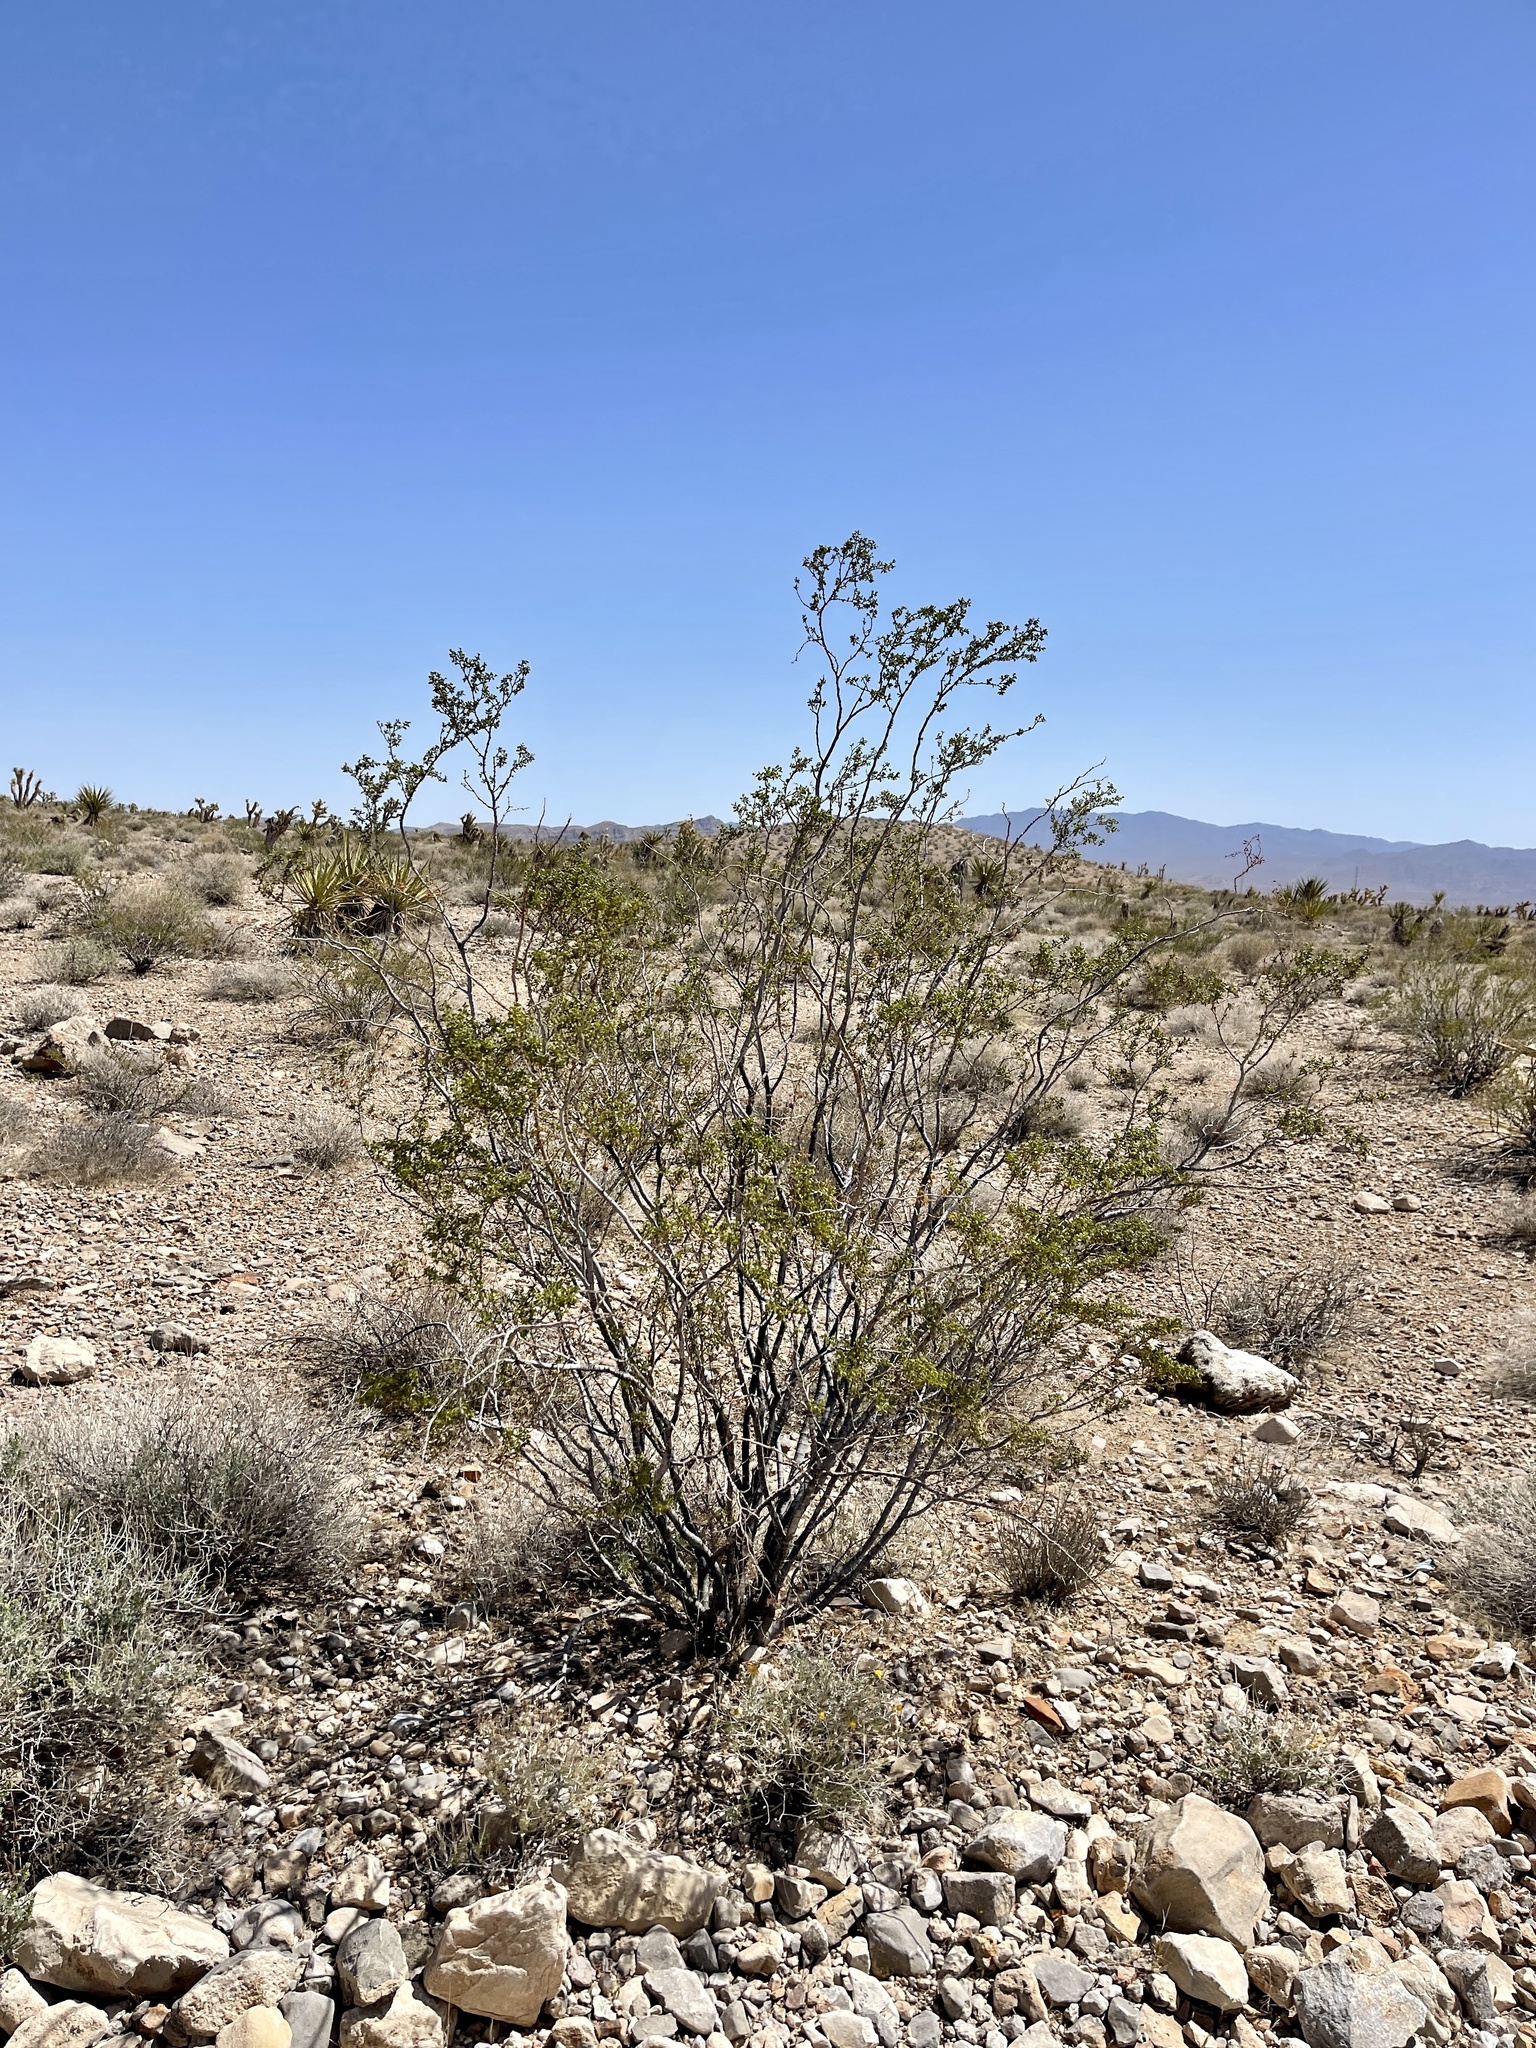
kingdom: Plantae
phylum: Tracheophyta
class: Magnoliopsida
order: Zygophyllales
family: Zygophyllaceae
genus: Larrea
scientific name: Larrea tridentata
